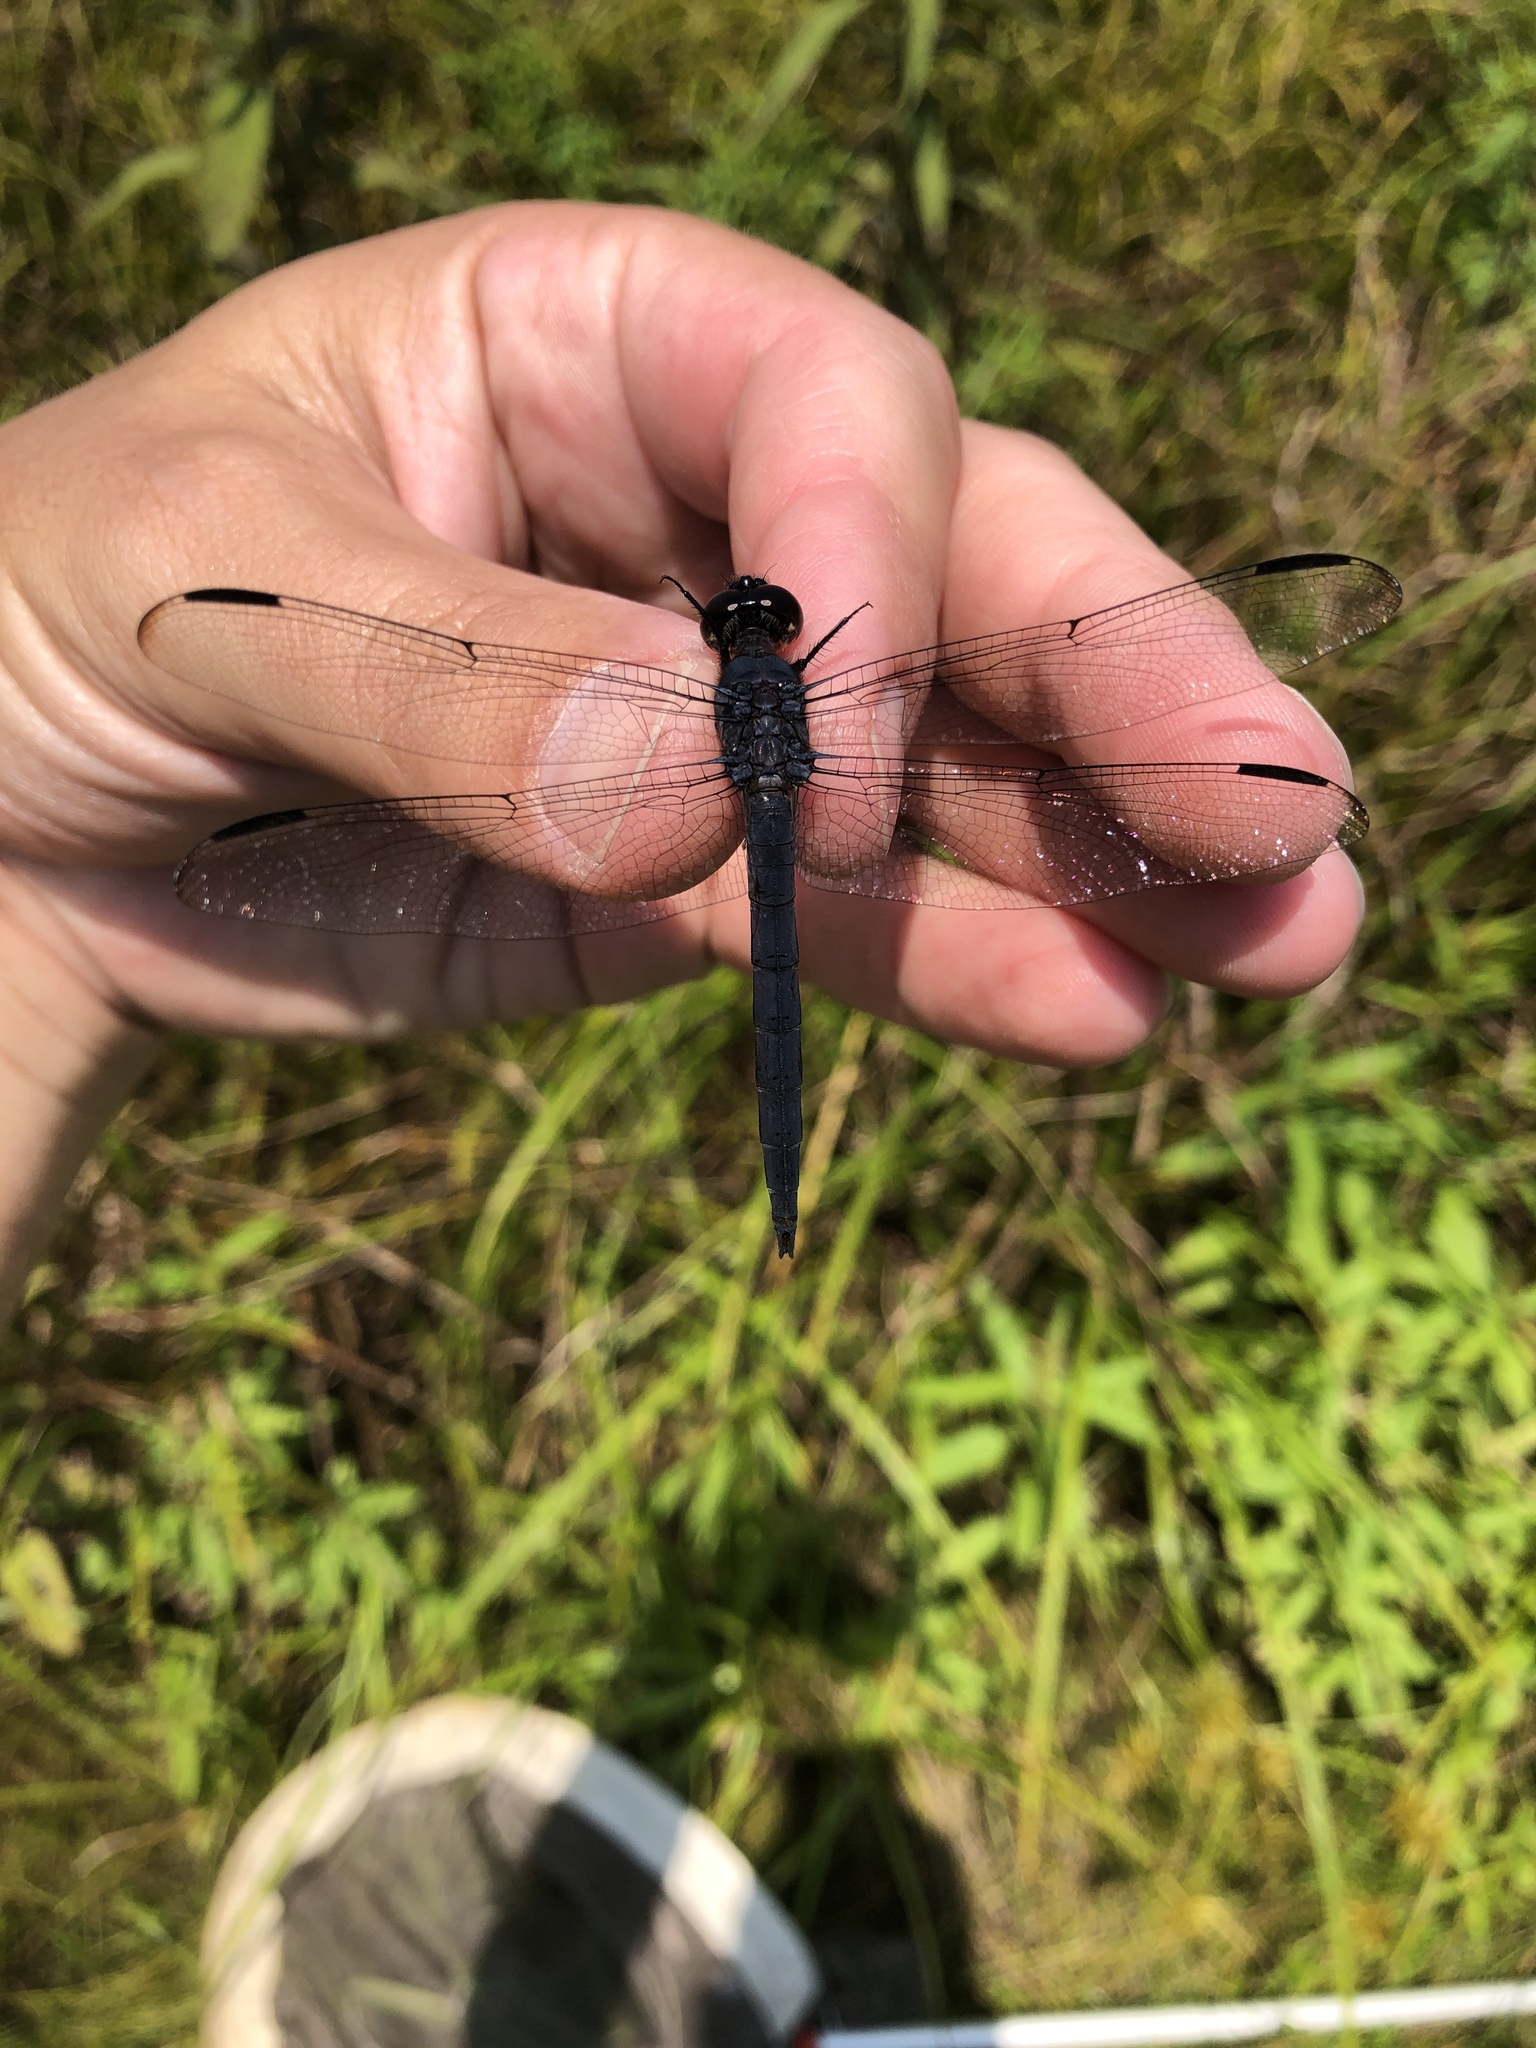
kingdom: Animalia
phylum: Arthropoda
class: Insecta
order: Odonata
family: Libellulidae
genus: Libellula
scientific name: Libellula incesta
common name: Slaty skimmer
